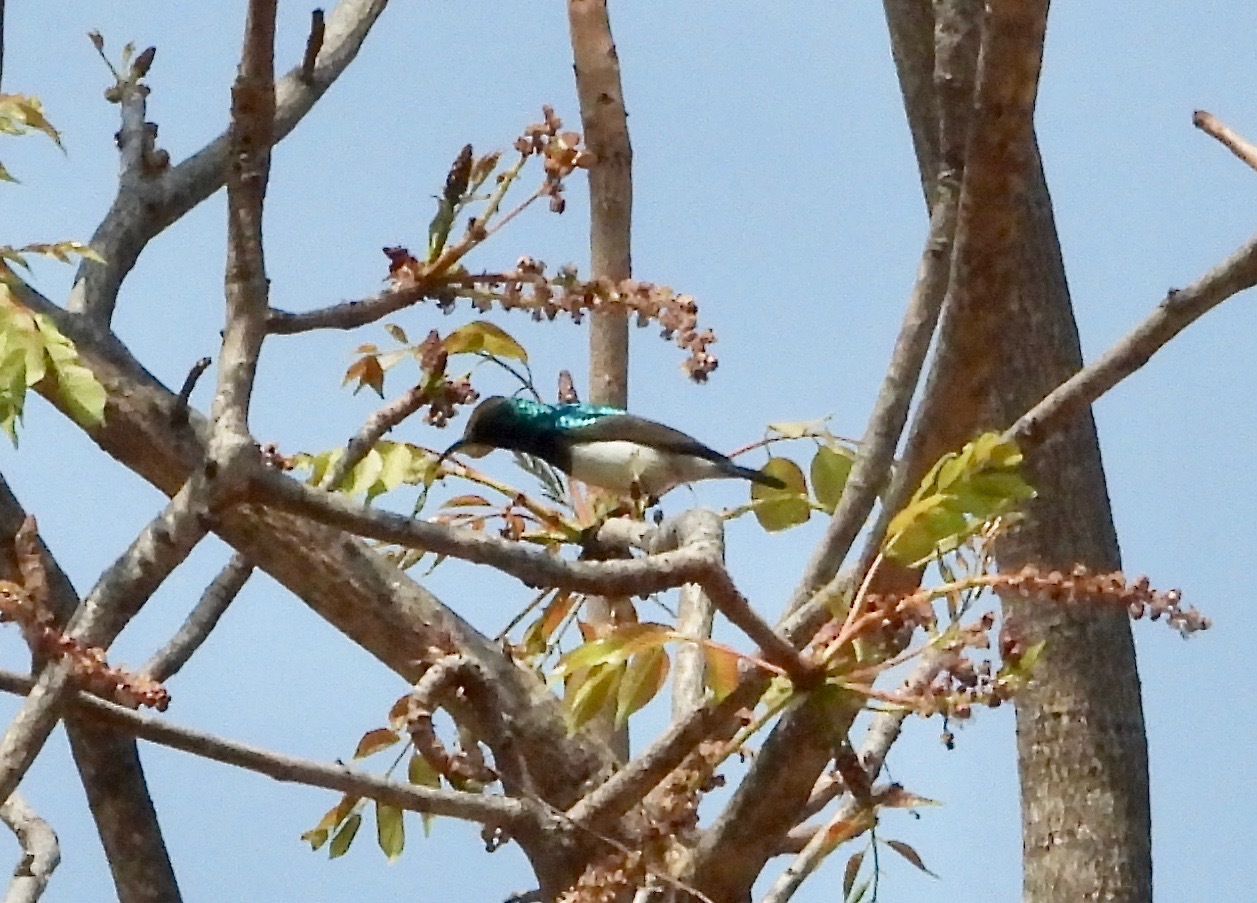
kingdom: Animalia
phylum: Chordata
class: Aves
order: Passeriformes
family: Nectariniidae
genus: Cinnyris
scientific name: Cinnyris talatala
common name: White-bellied sunbird
